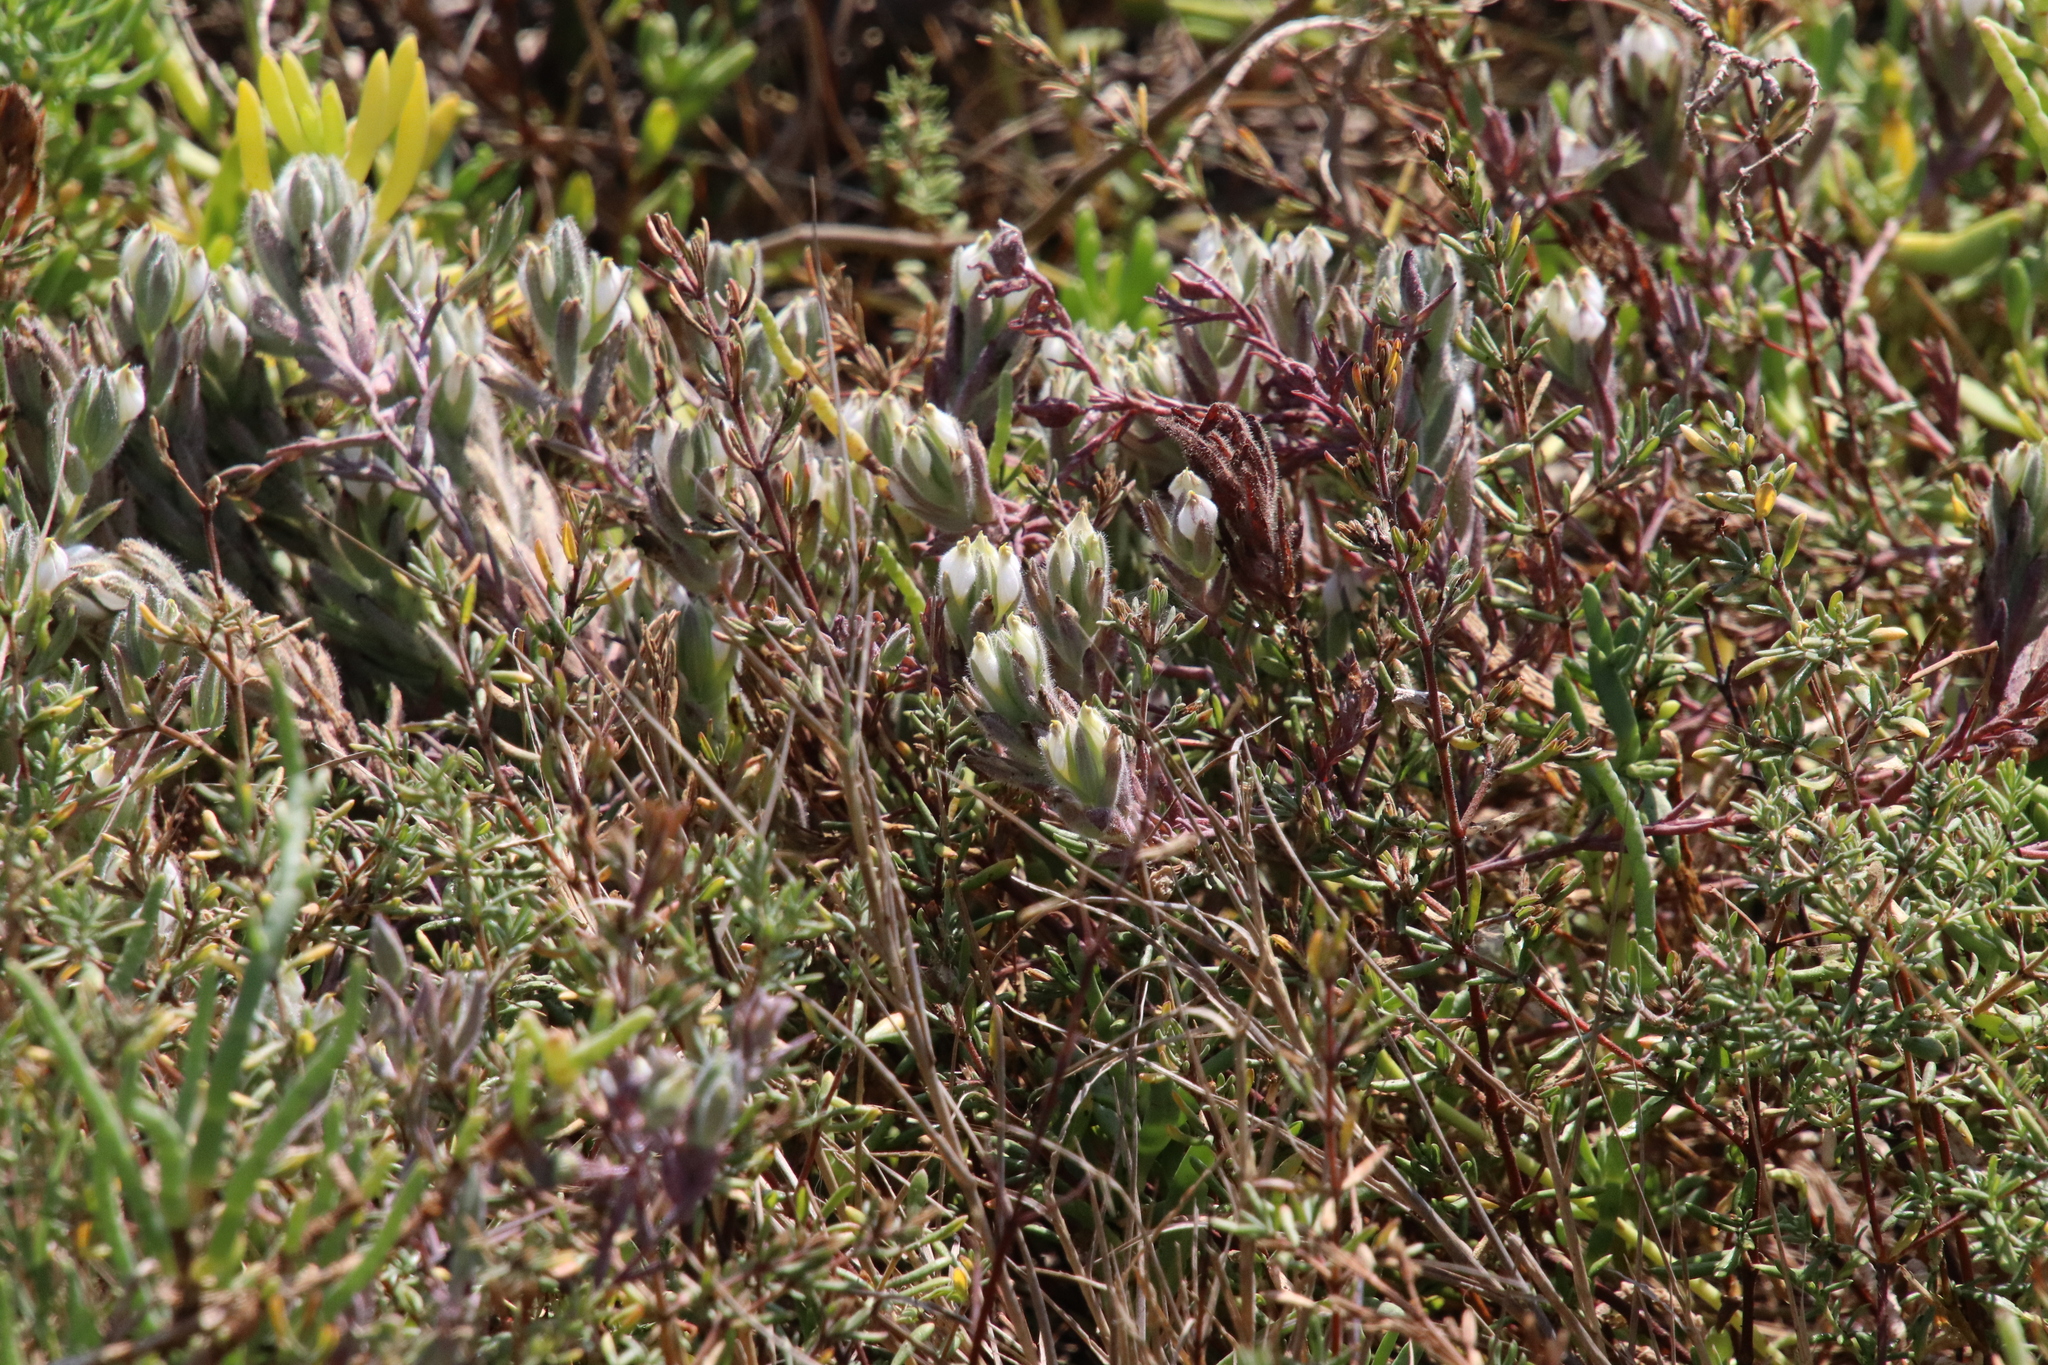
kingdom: Plantae
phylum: Tracheophyta
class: Magnoliopsida
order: Lamiales
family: Orobanchaceae
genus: Chloropyron
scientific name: Chloropyron maritimum
